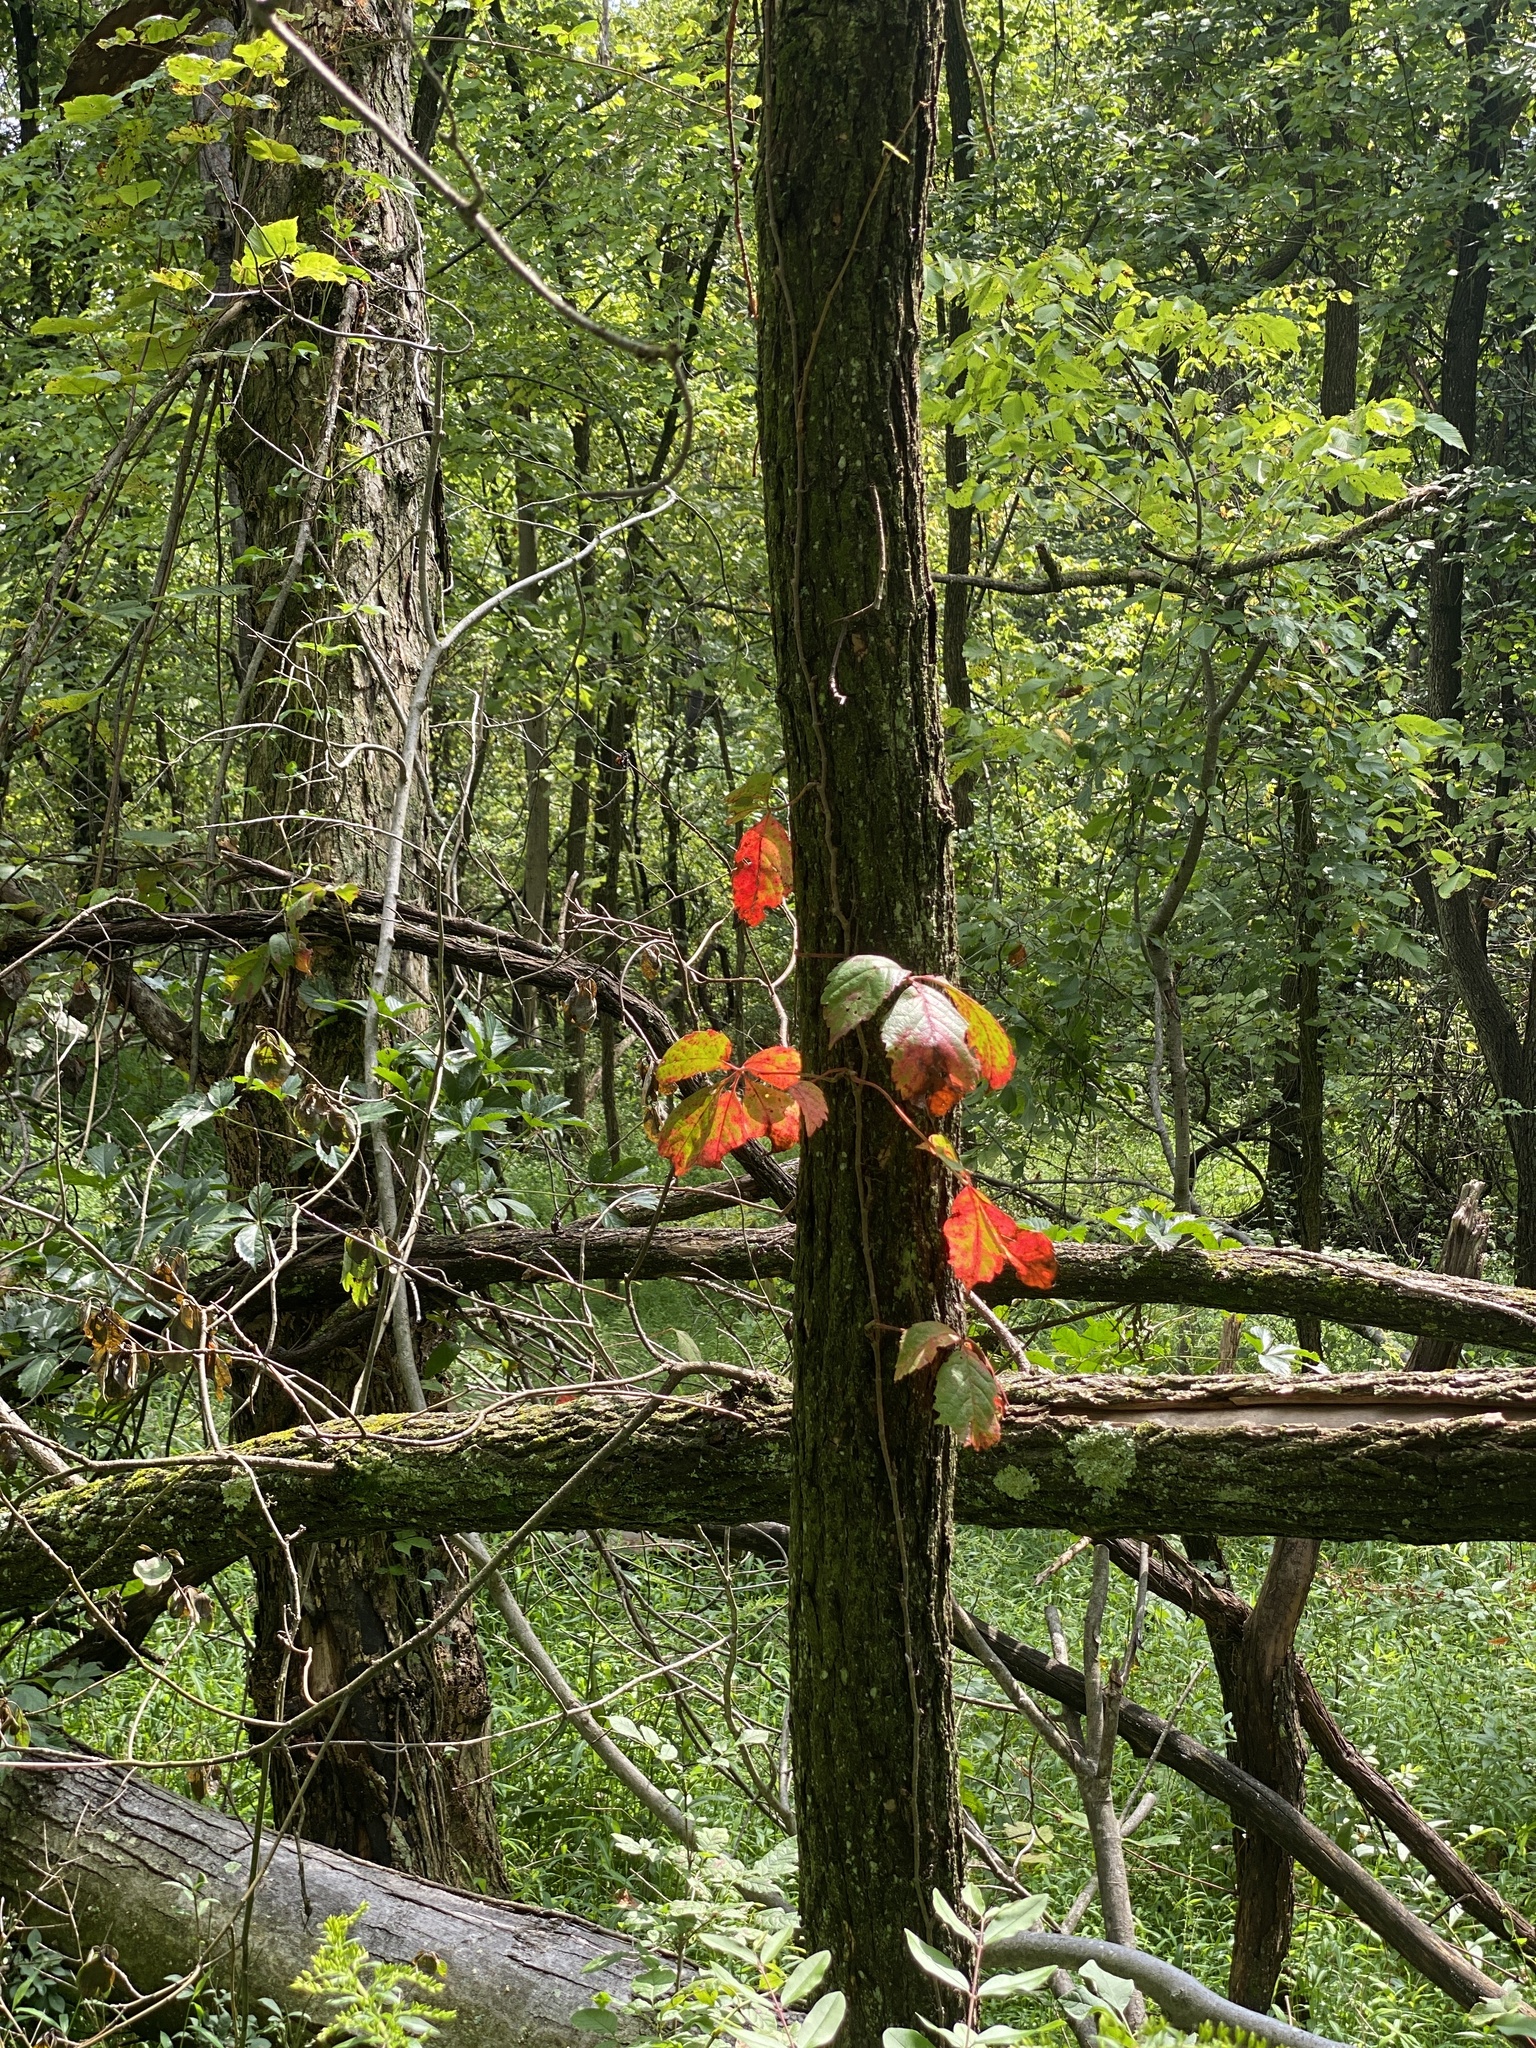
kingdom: Plantae
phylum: Tracheophyta
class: Magnoliopsida
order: Vitales
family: Vitaceae
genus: Parthenocissus
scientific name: Parthenocissus quinquefolia
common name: Virginia-creeper
